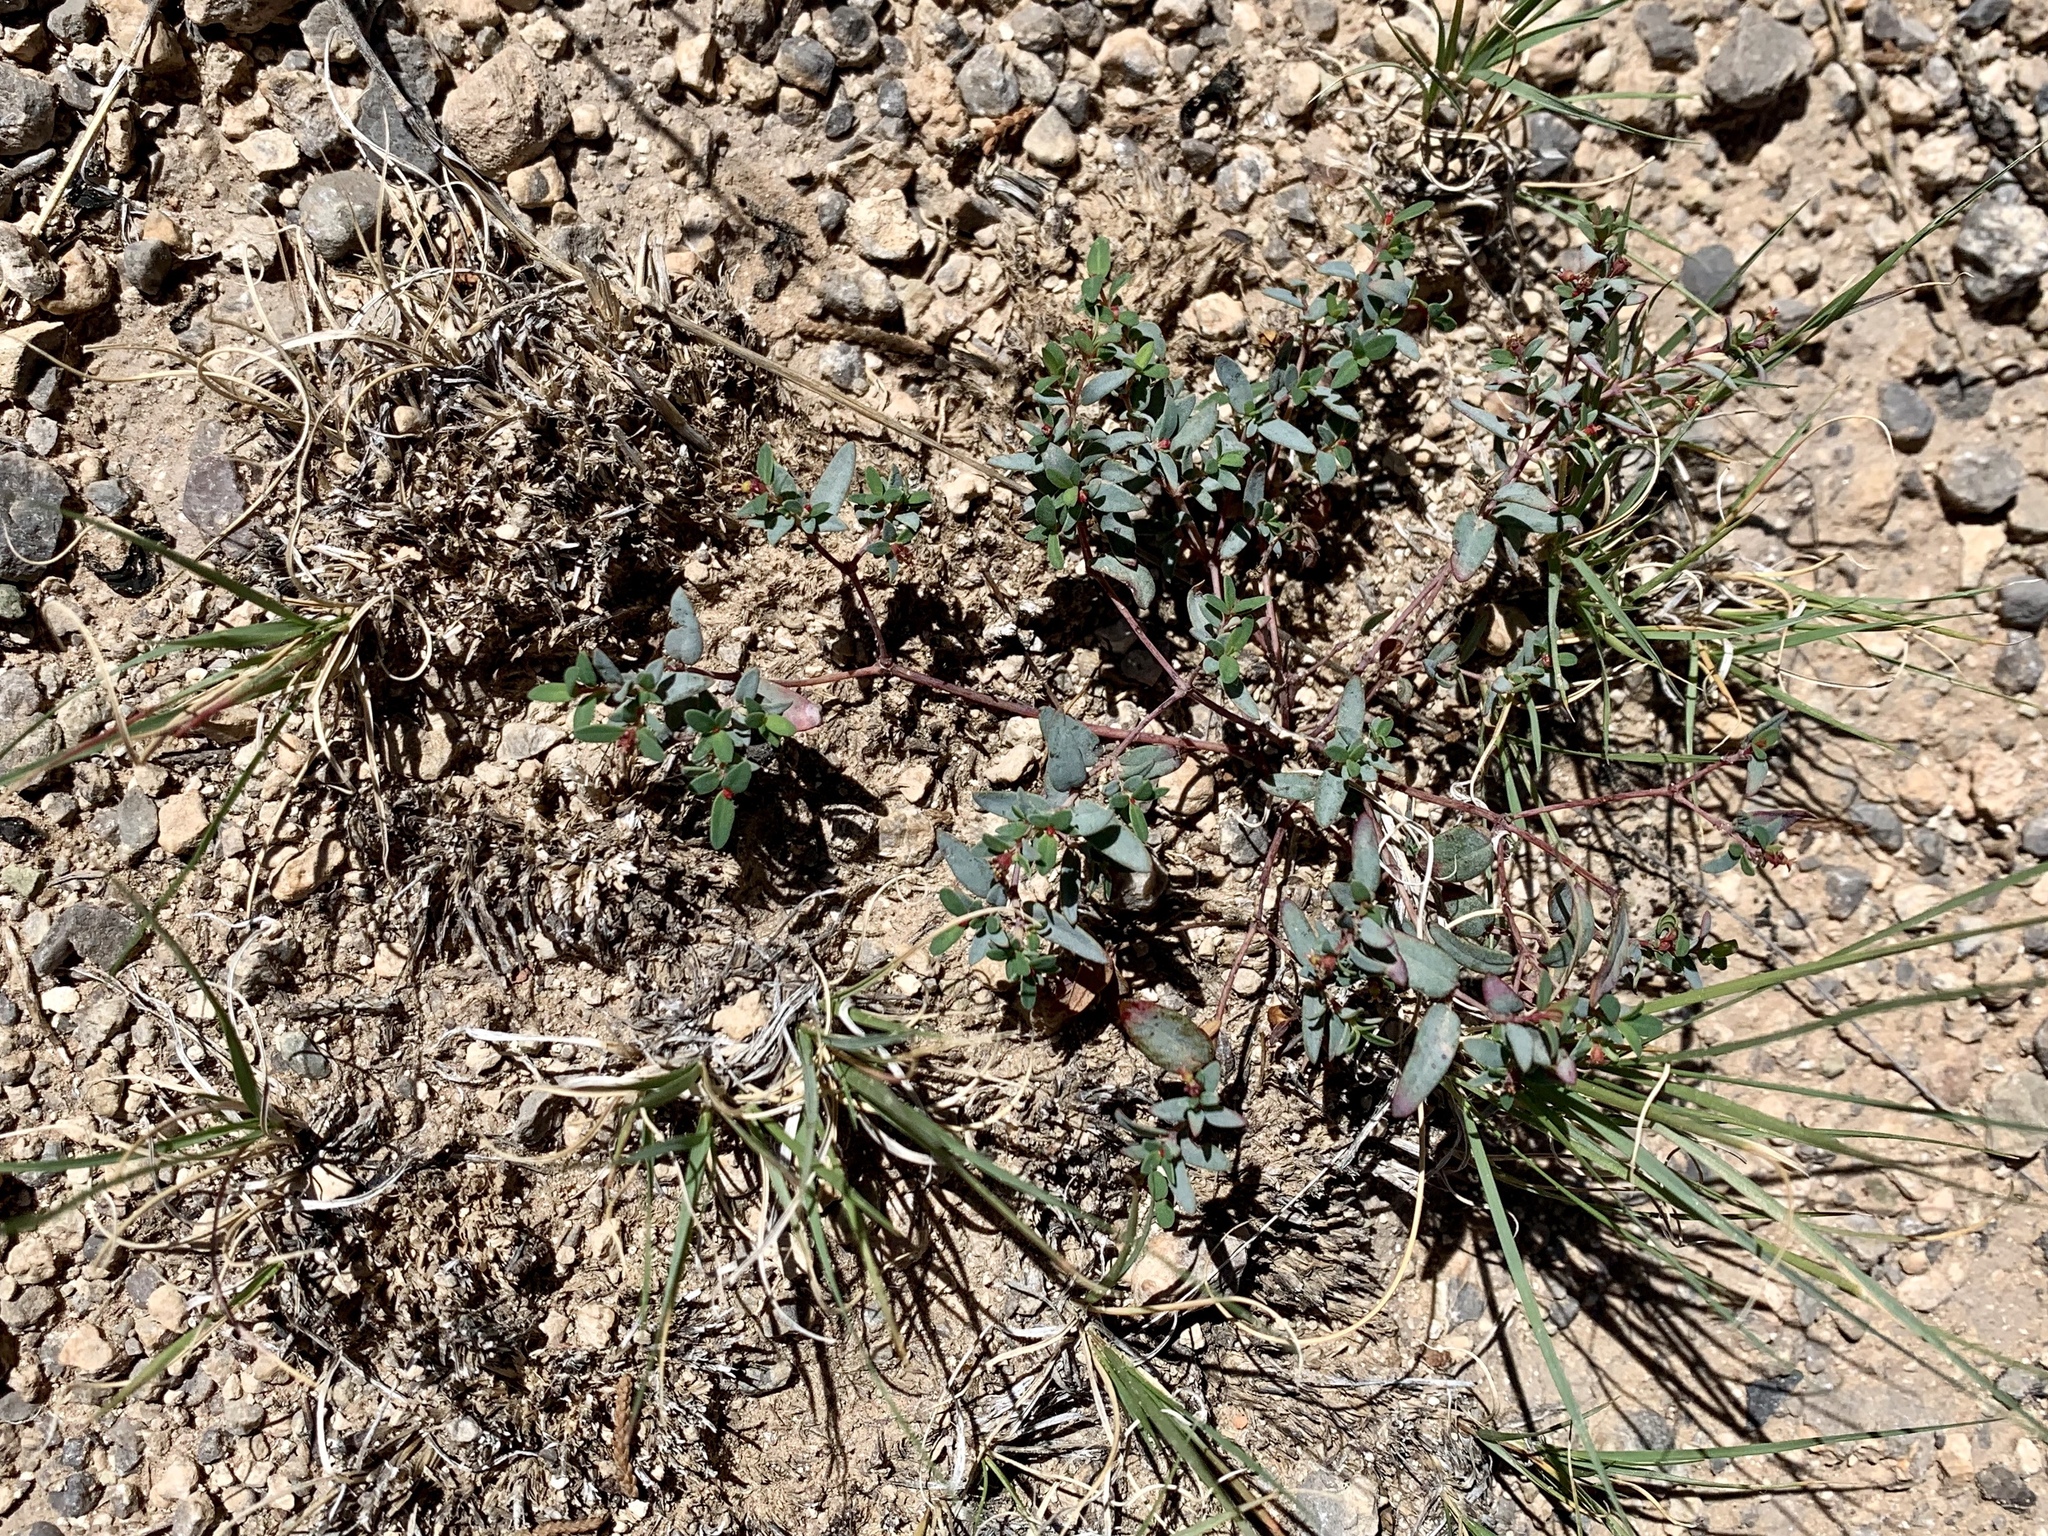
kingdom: Plantae
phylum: Tracheophyta
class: Magnoliopsida
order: Malpighiales
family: Euphorbiaceae
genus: Euphorbia
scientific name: Euphorbia chaetocalyx
